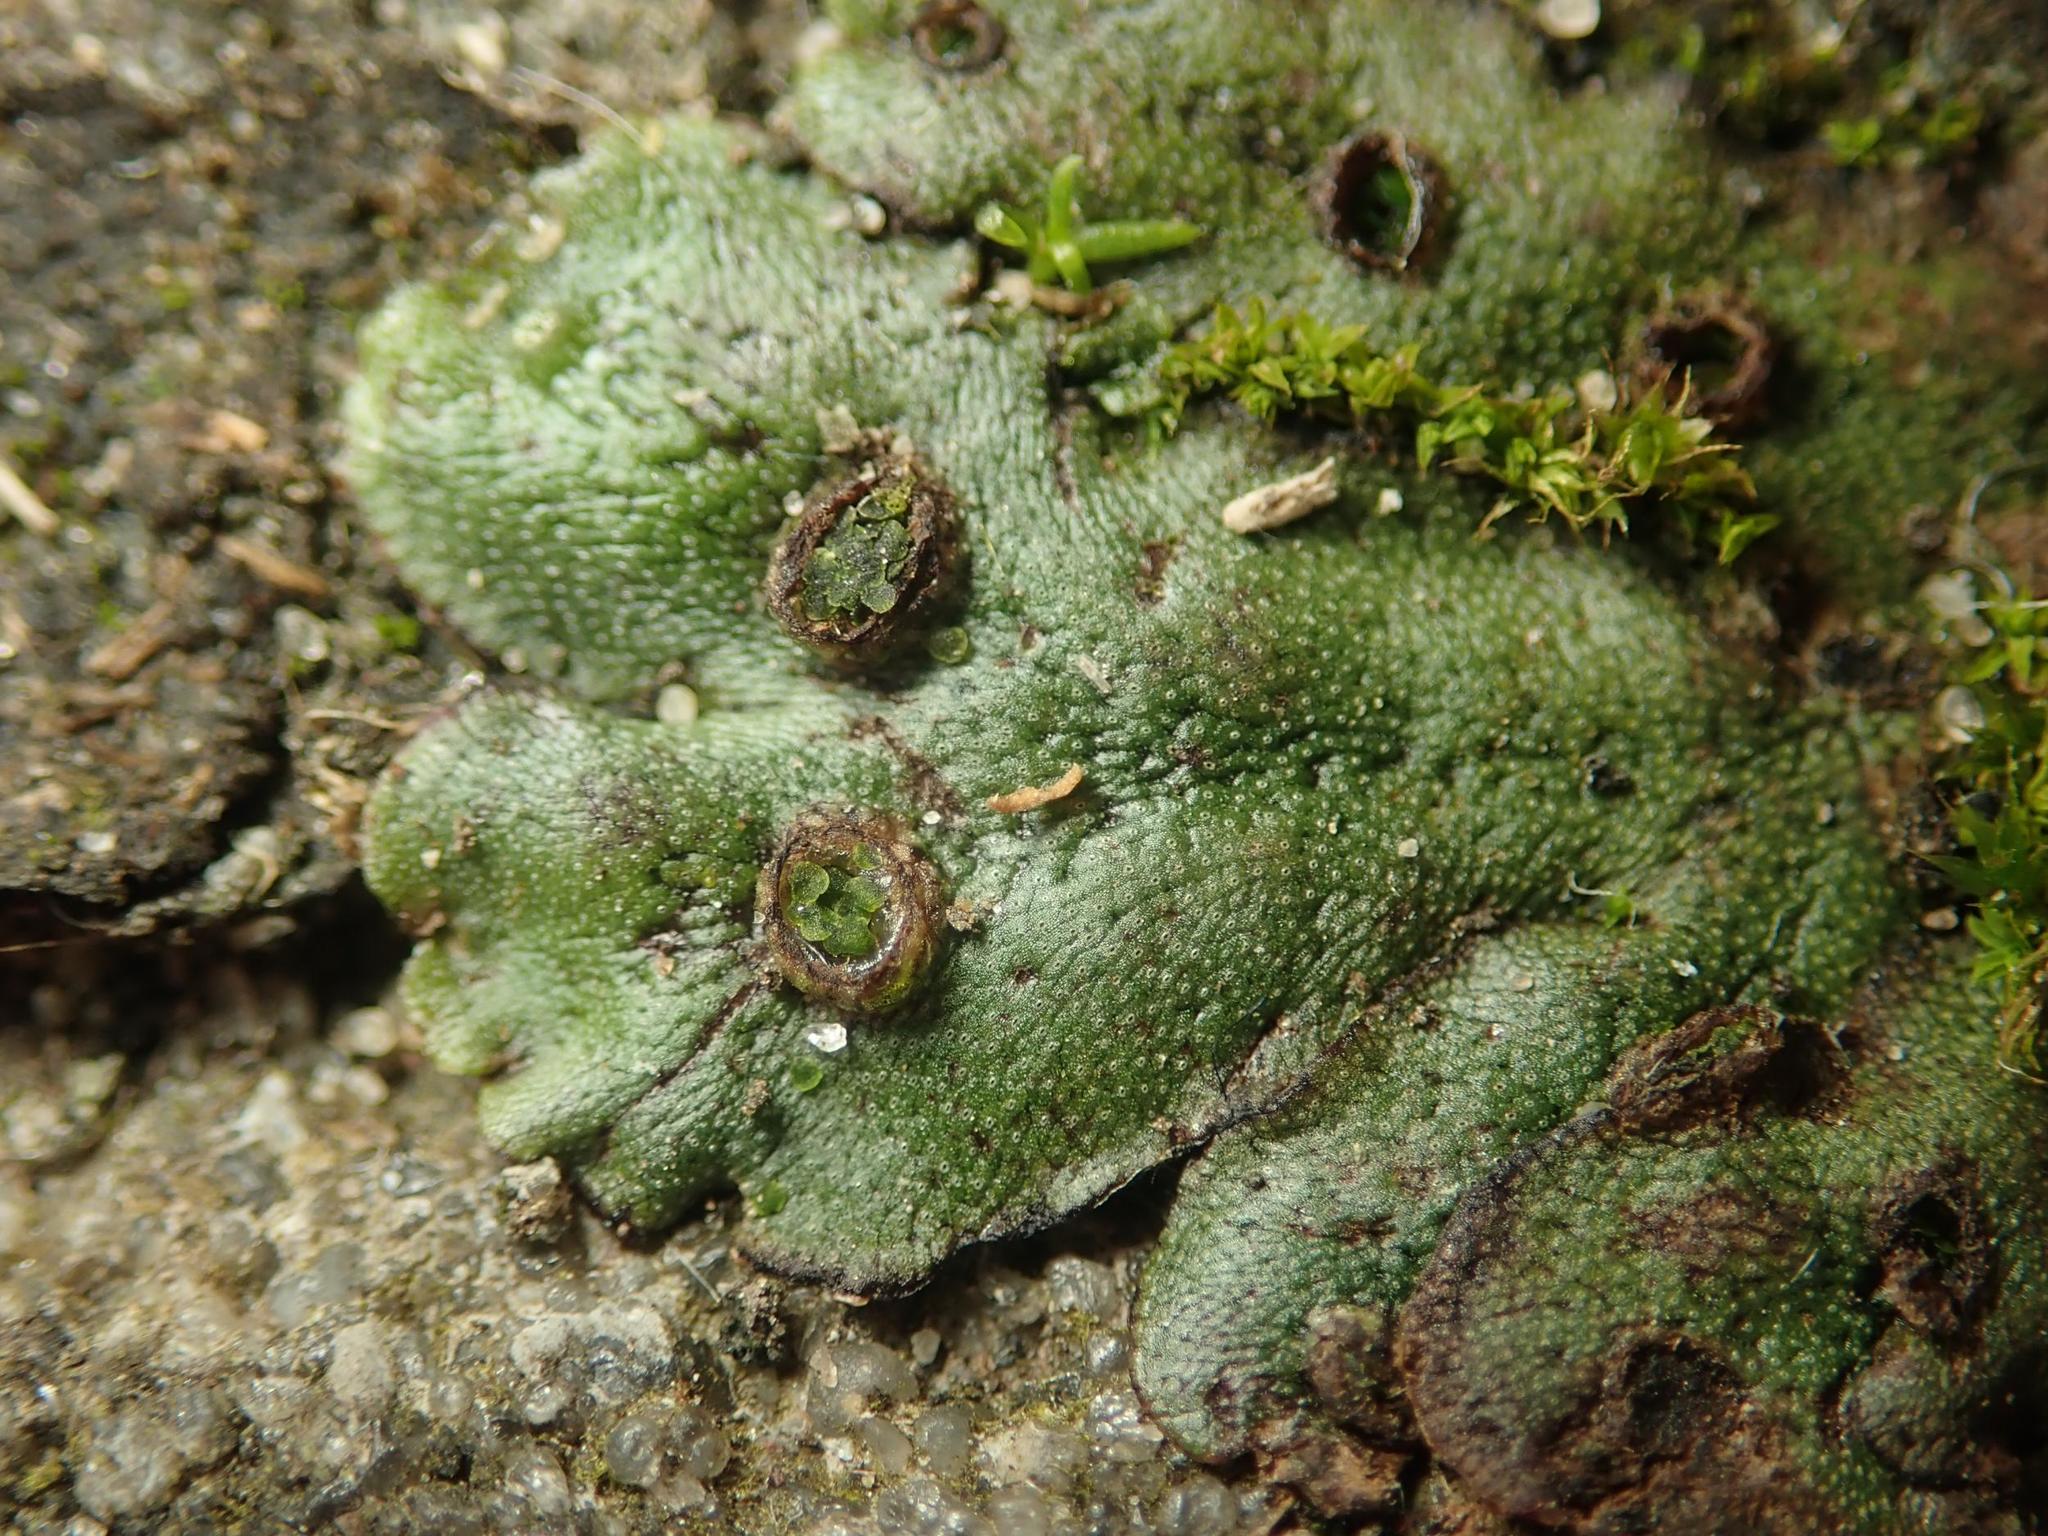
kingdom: Plantae
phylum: Marchantiophyta
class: Marchantiopsida
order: Marchantiales
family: Marchantiaceae
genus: Marchantia
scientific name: Marchantia polymorpha
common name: Common liverwort
